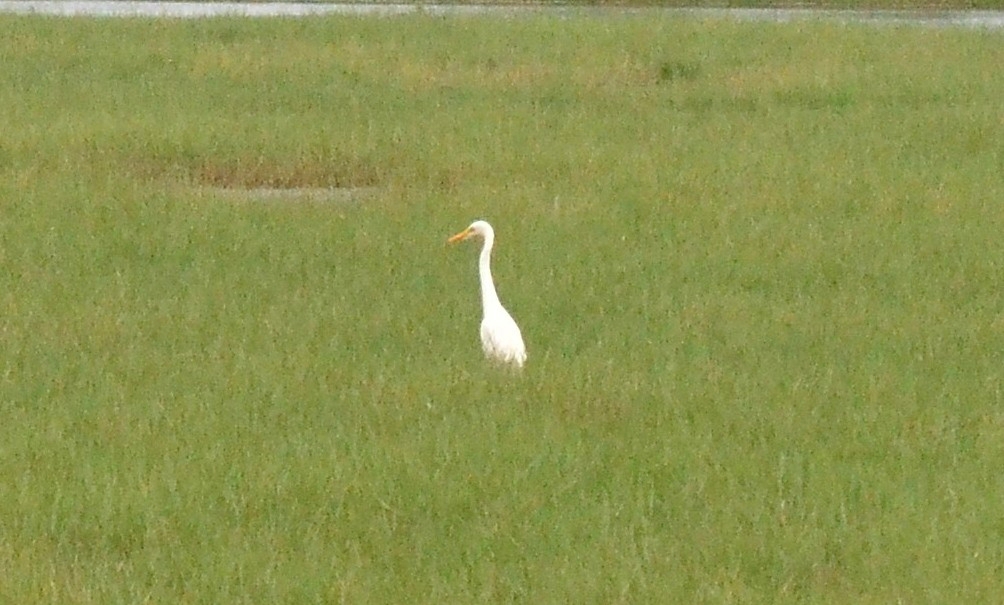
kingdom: Animalia
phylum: Chordata
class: Aves
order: Pelecaniformes
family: Ardeidae
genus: Egretta
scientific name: Egretta intermedia
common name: Intermediate egret
